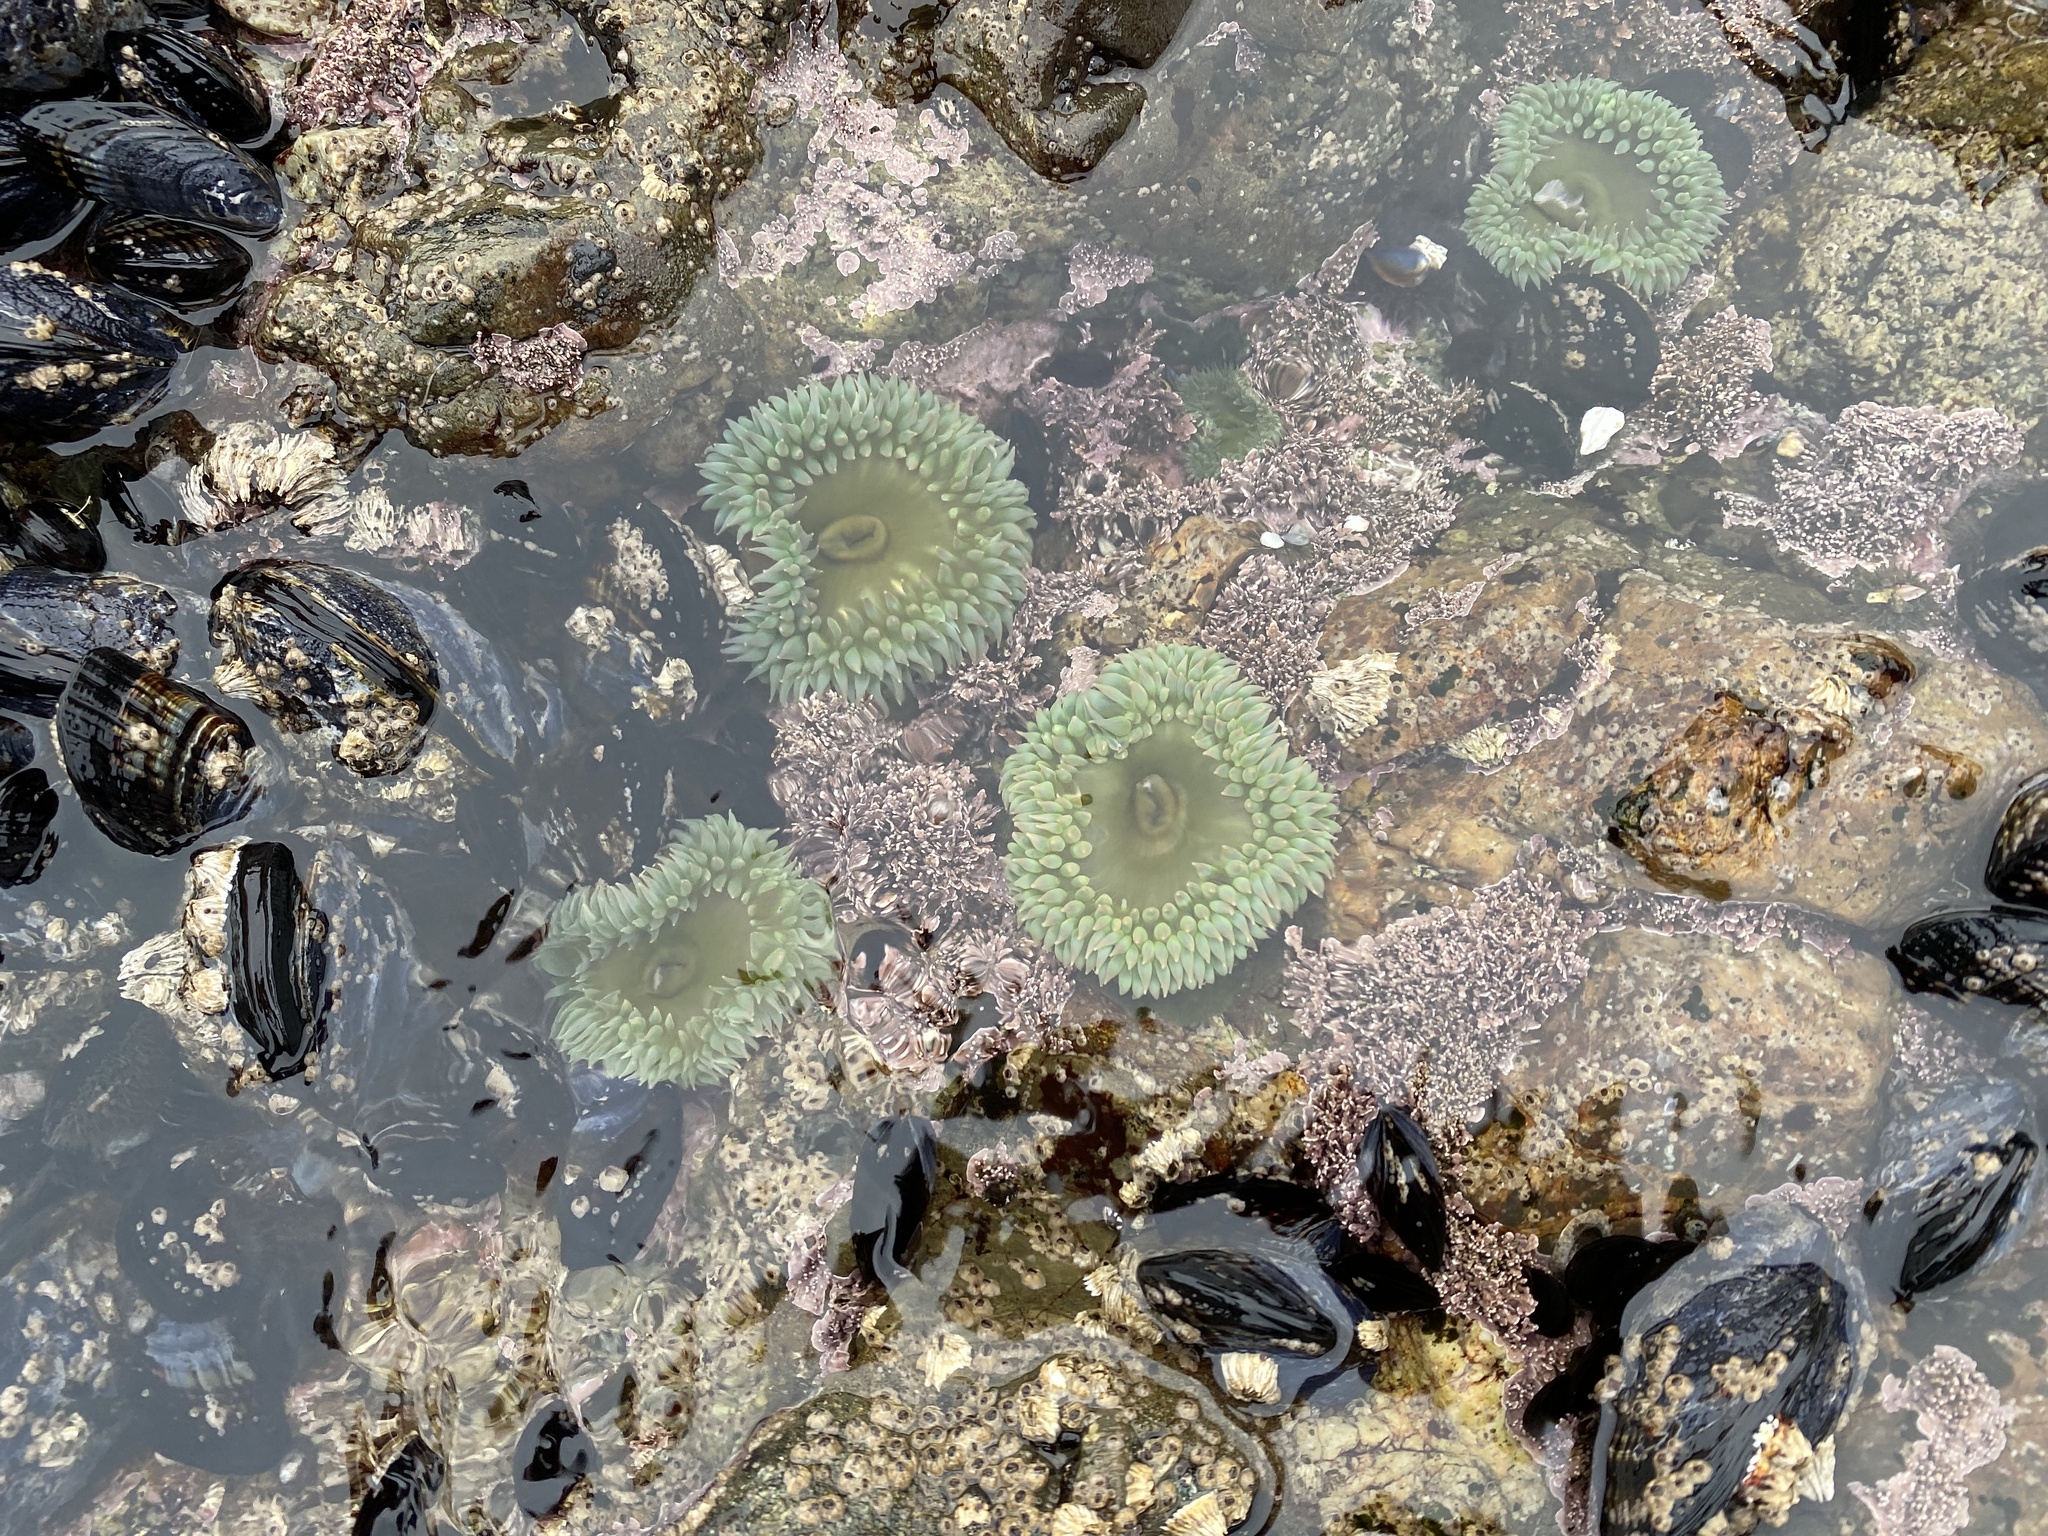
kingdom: Animalia
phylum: Cnidaria
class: Anthozoa
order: Actiniaria
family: Actiniidae
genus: Anthopleura
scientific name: Anthopleura xanthogrammica
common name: Giant green anemone
